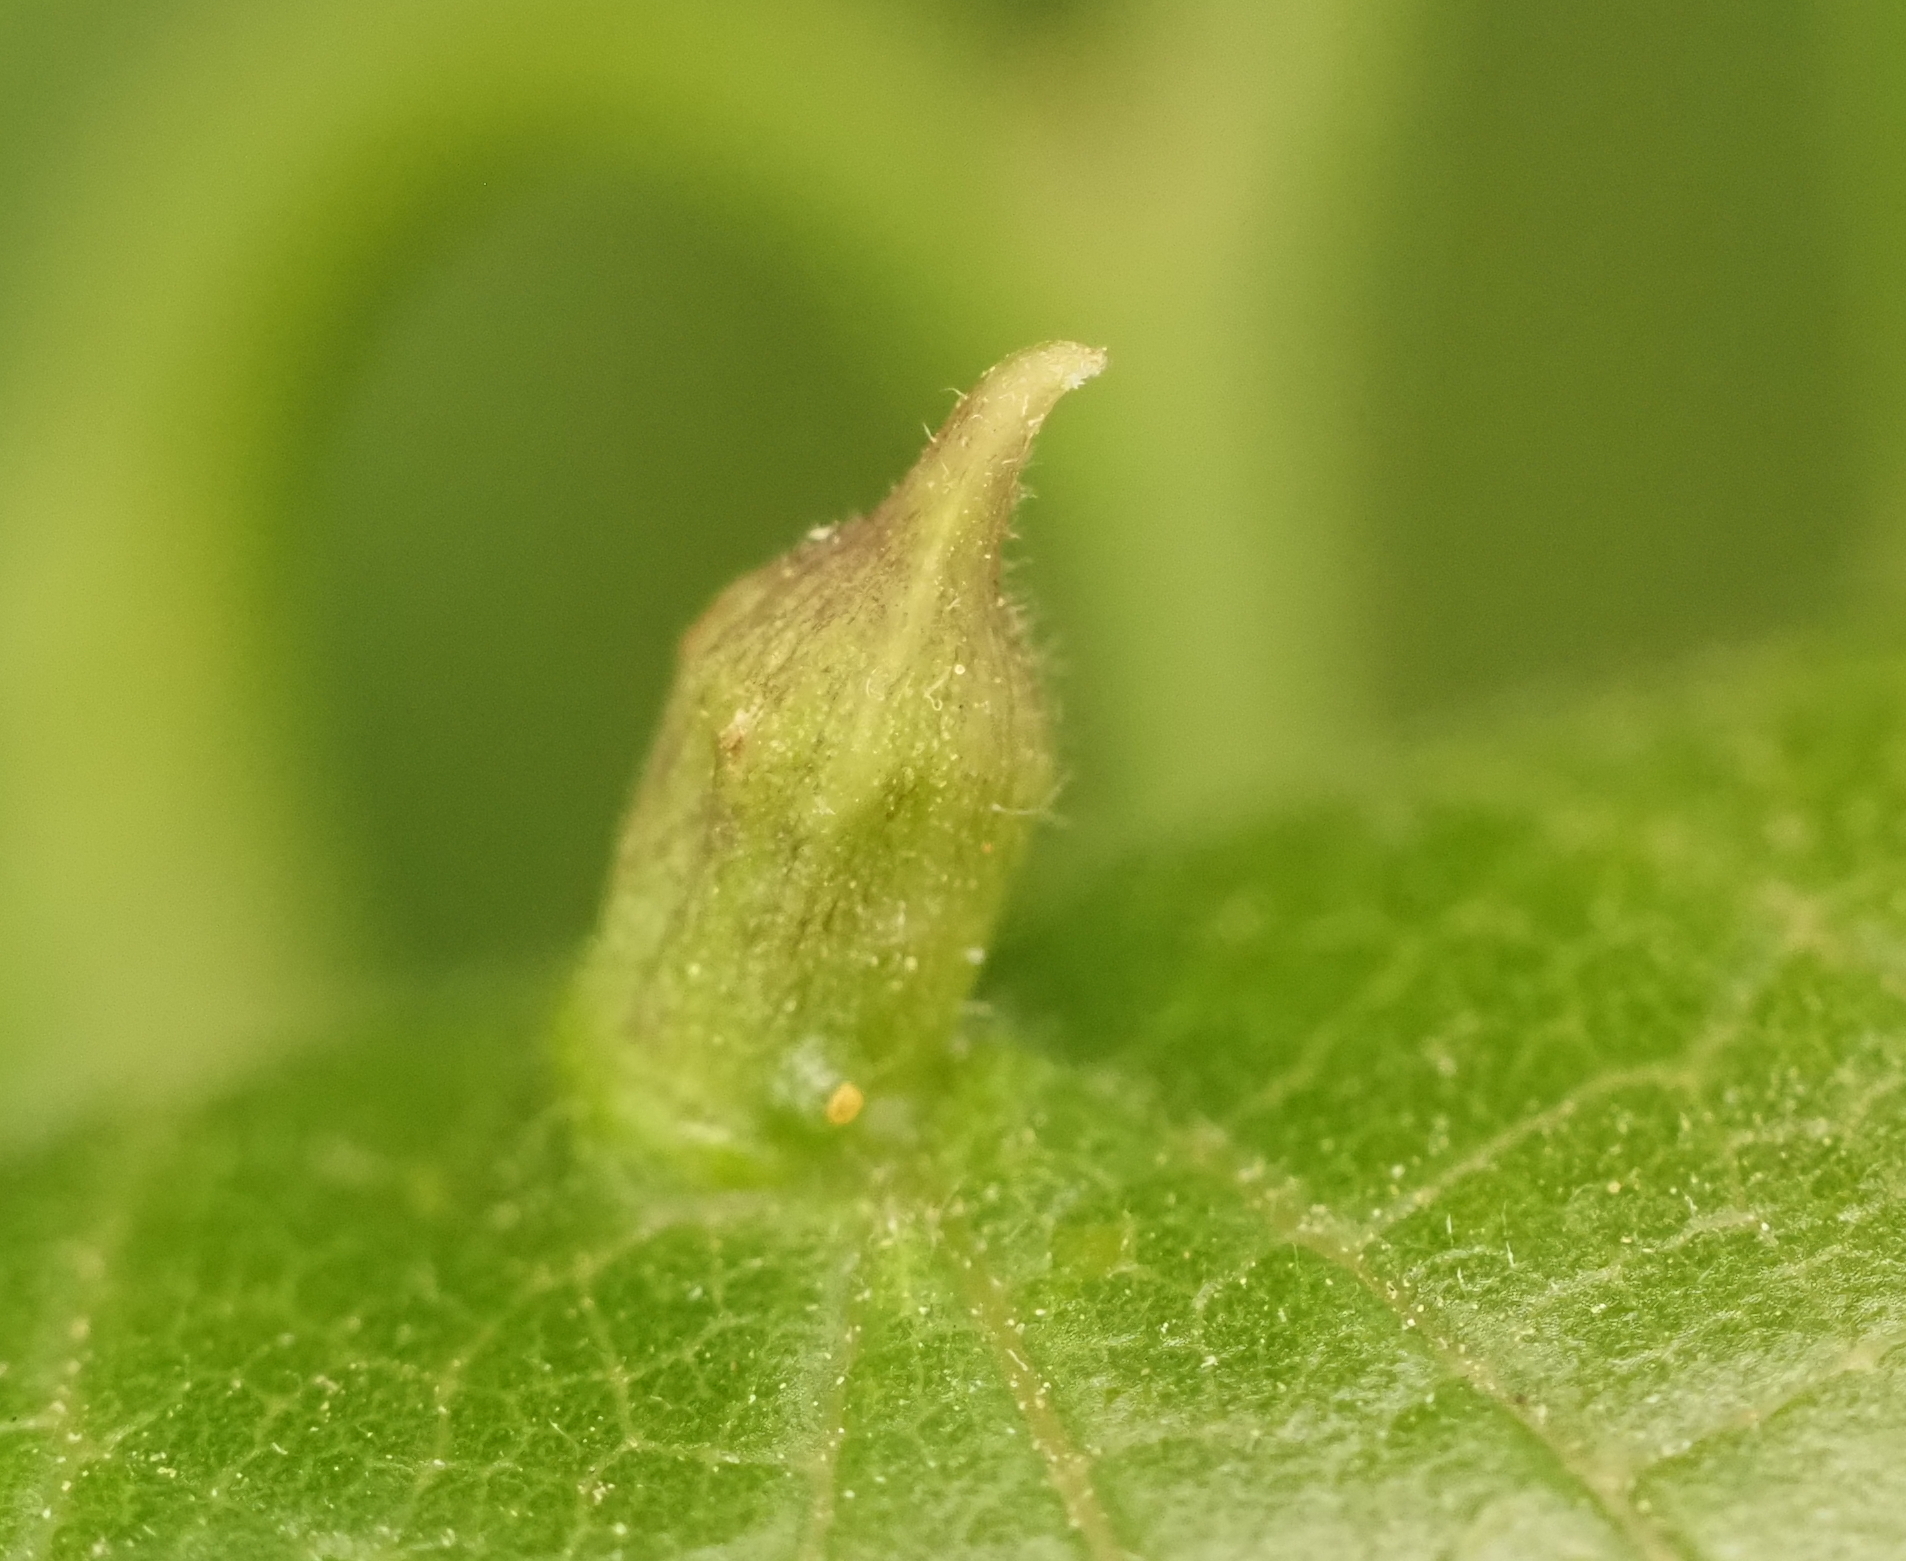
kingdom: Animalia
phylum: Arthropoda
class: Insecta
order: Diptera
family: Cecidomyiidae
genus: Celticecis
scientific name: Celticecis ramicola
